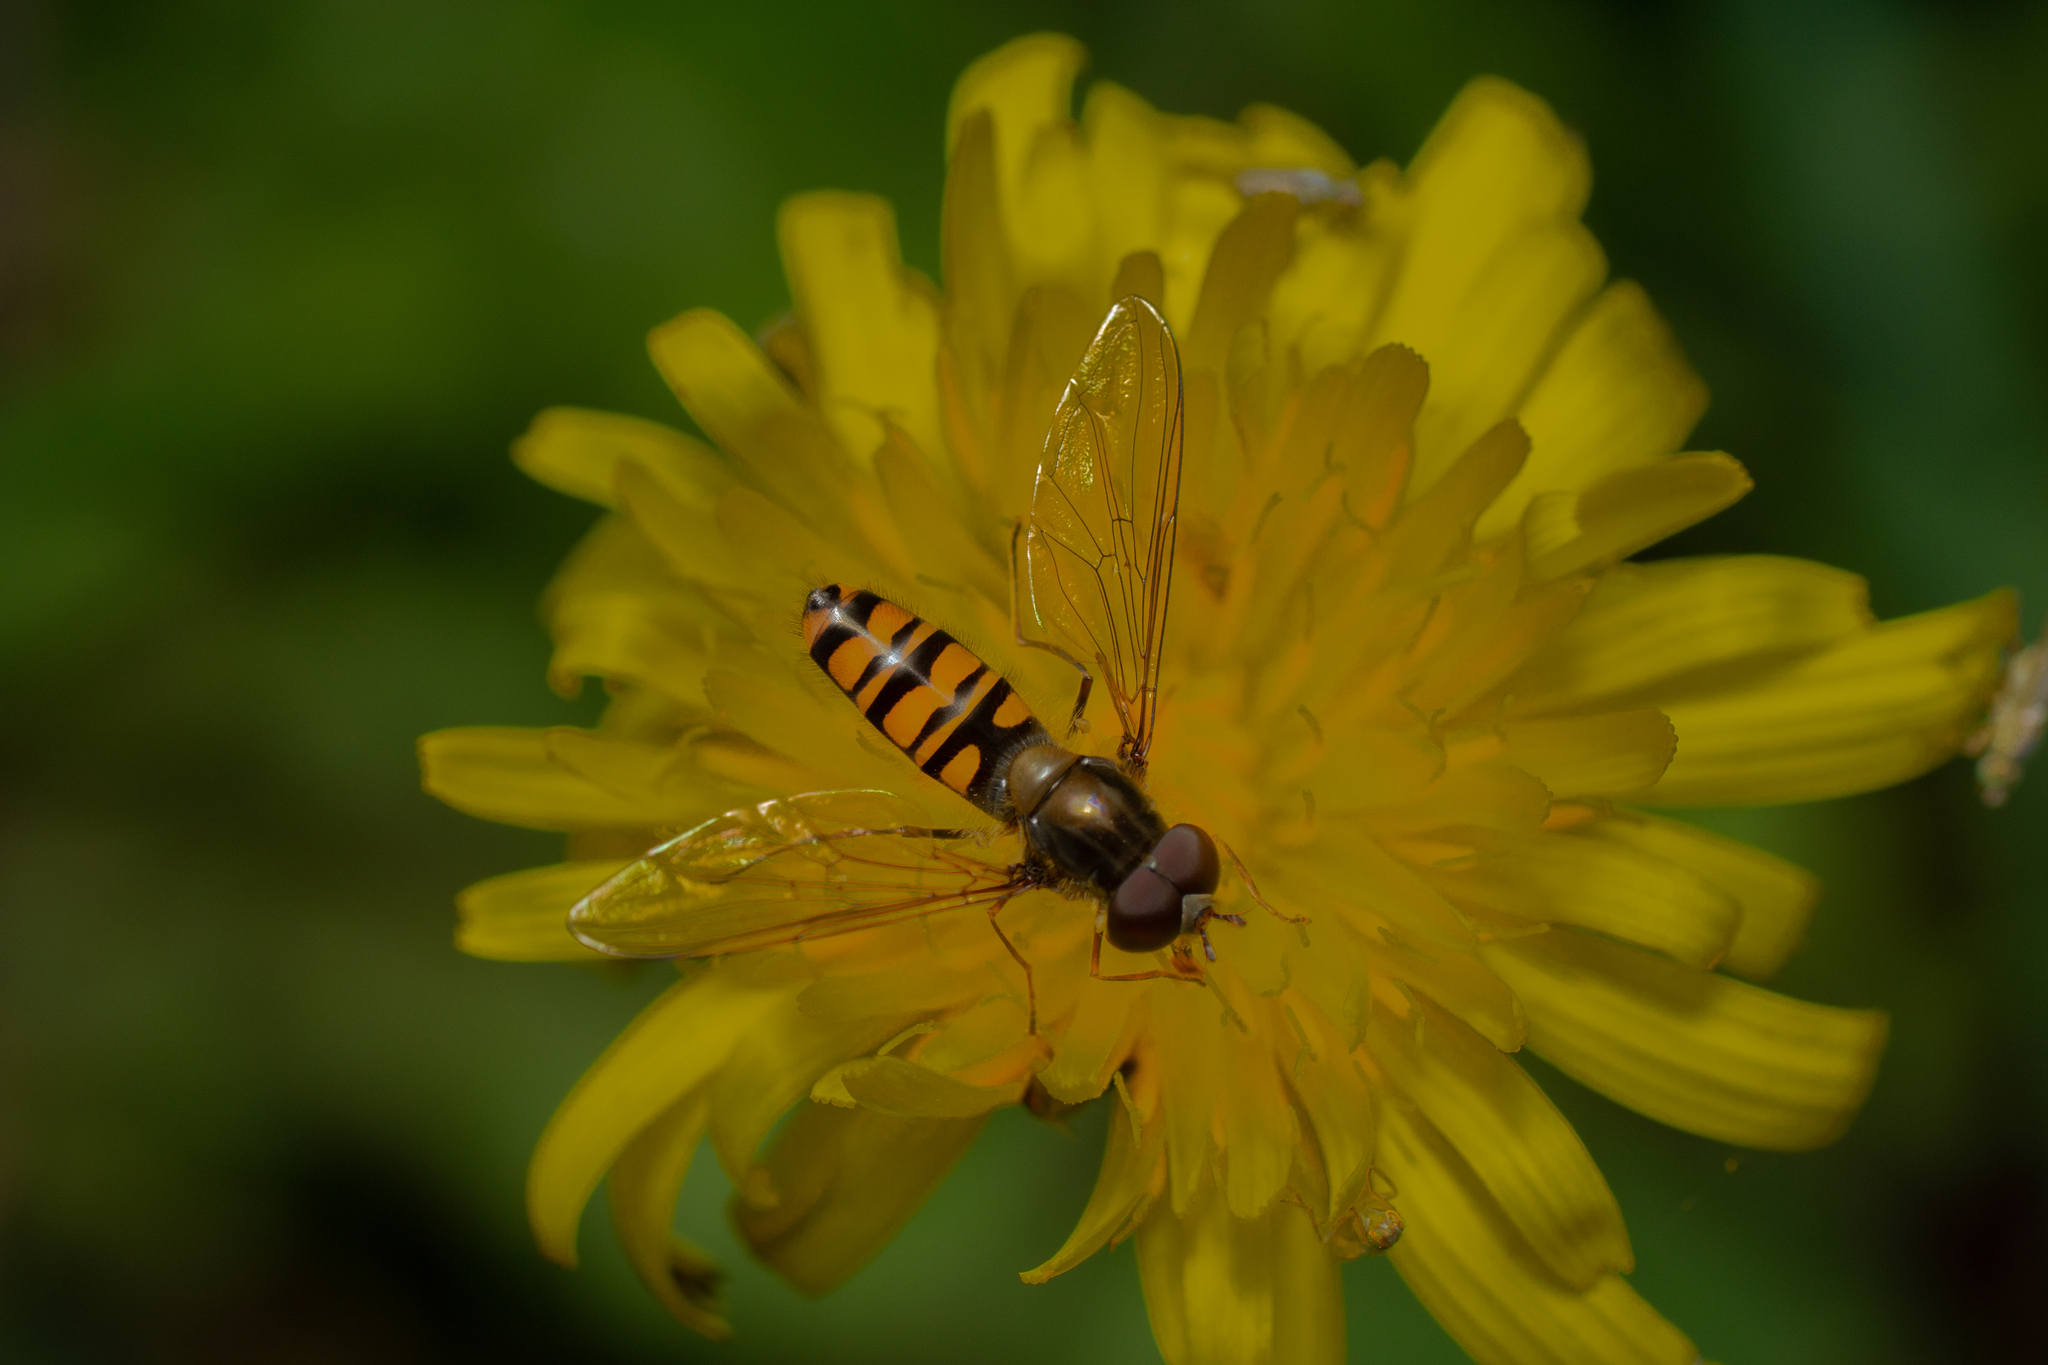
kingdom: Animalia
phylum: Arthropoda
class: Insecta
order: Diptera
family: Syrphidae
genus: Episyrphus
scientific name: Episyrphus balteatus
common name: Marmalade hoverfly
